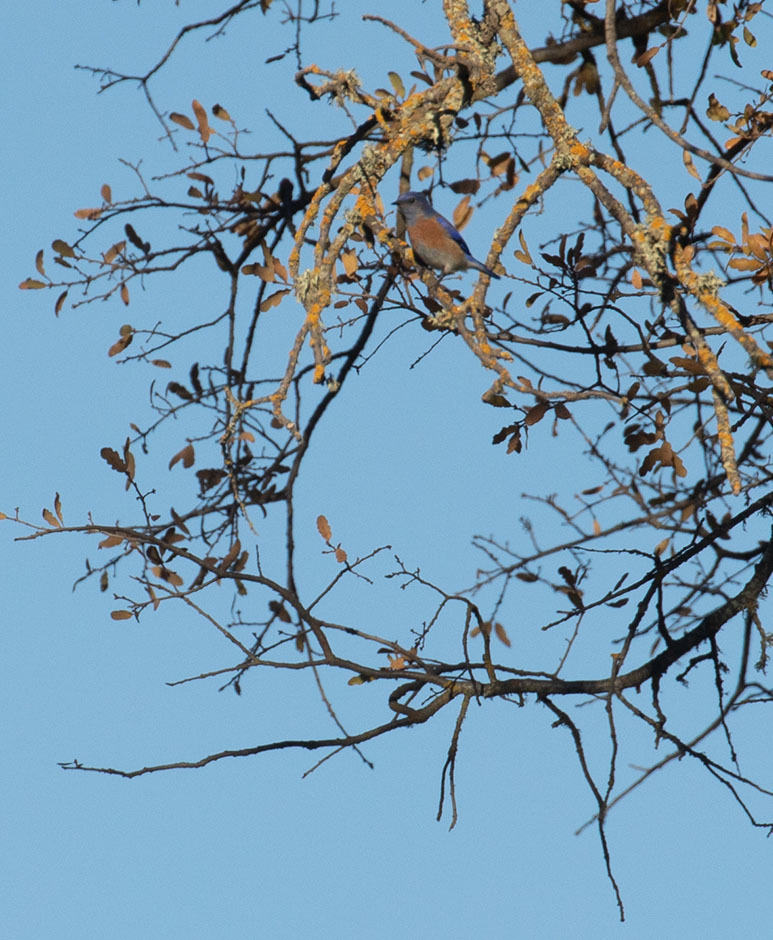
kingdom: Animalia
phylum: Chordata
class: Aves
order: Passeriformes
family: Turdidae
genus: Sialia
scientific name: Sialia mexicana
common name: Western bluebird
